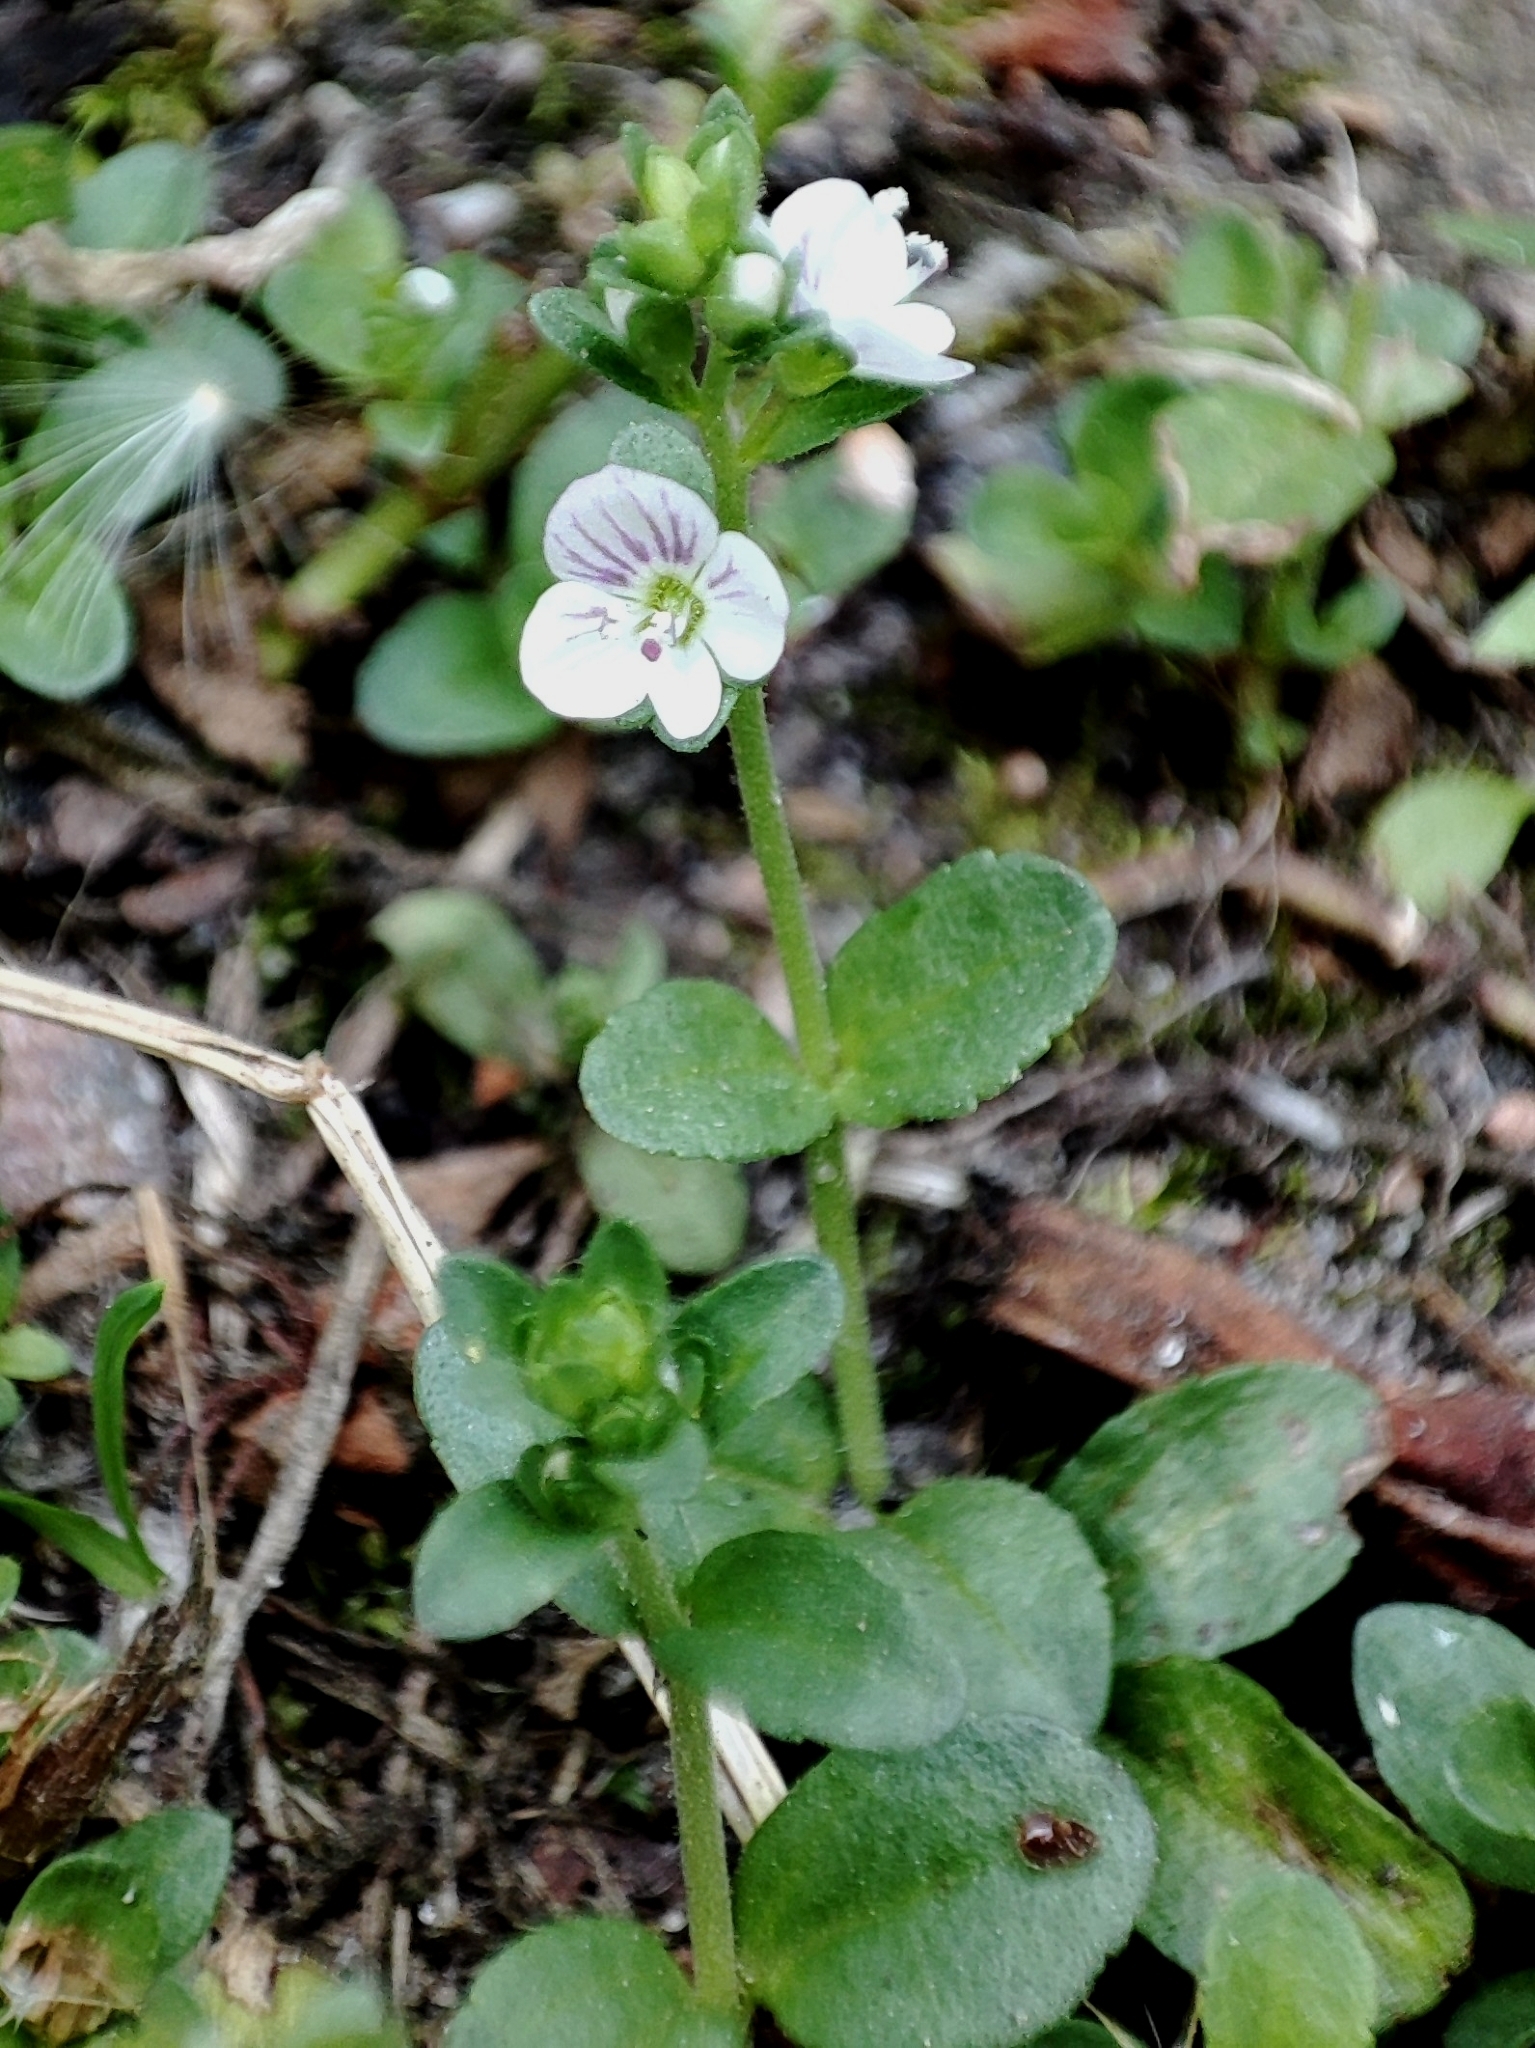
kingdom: Plantae
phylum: Tracheophyta
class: Magnoliopsida
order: Lamiales
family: Plantaginaceae
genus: Veronica
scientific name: Veronica serpyllifolia
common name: Thyme-leaved speedwell
